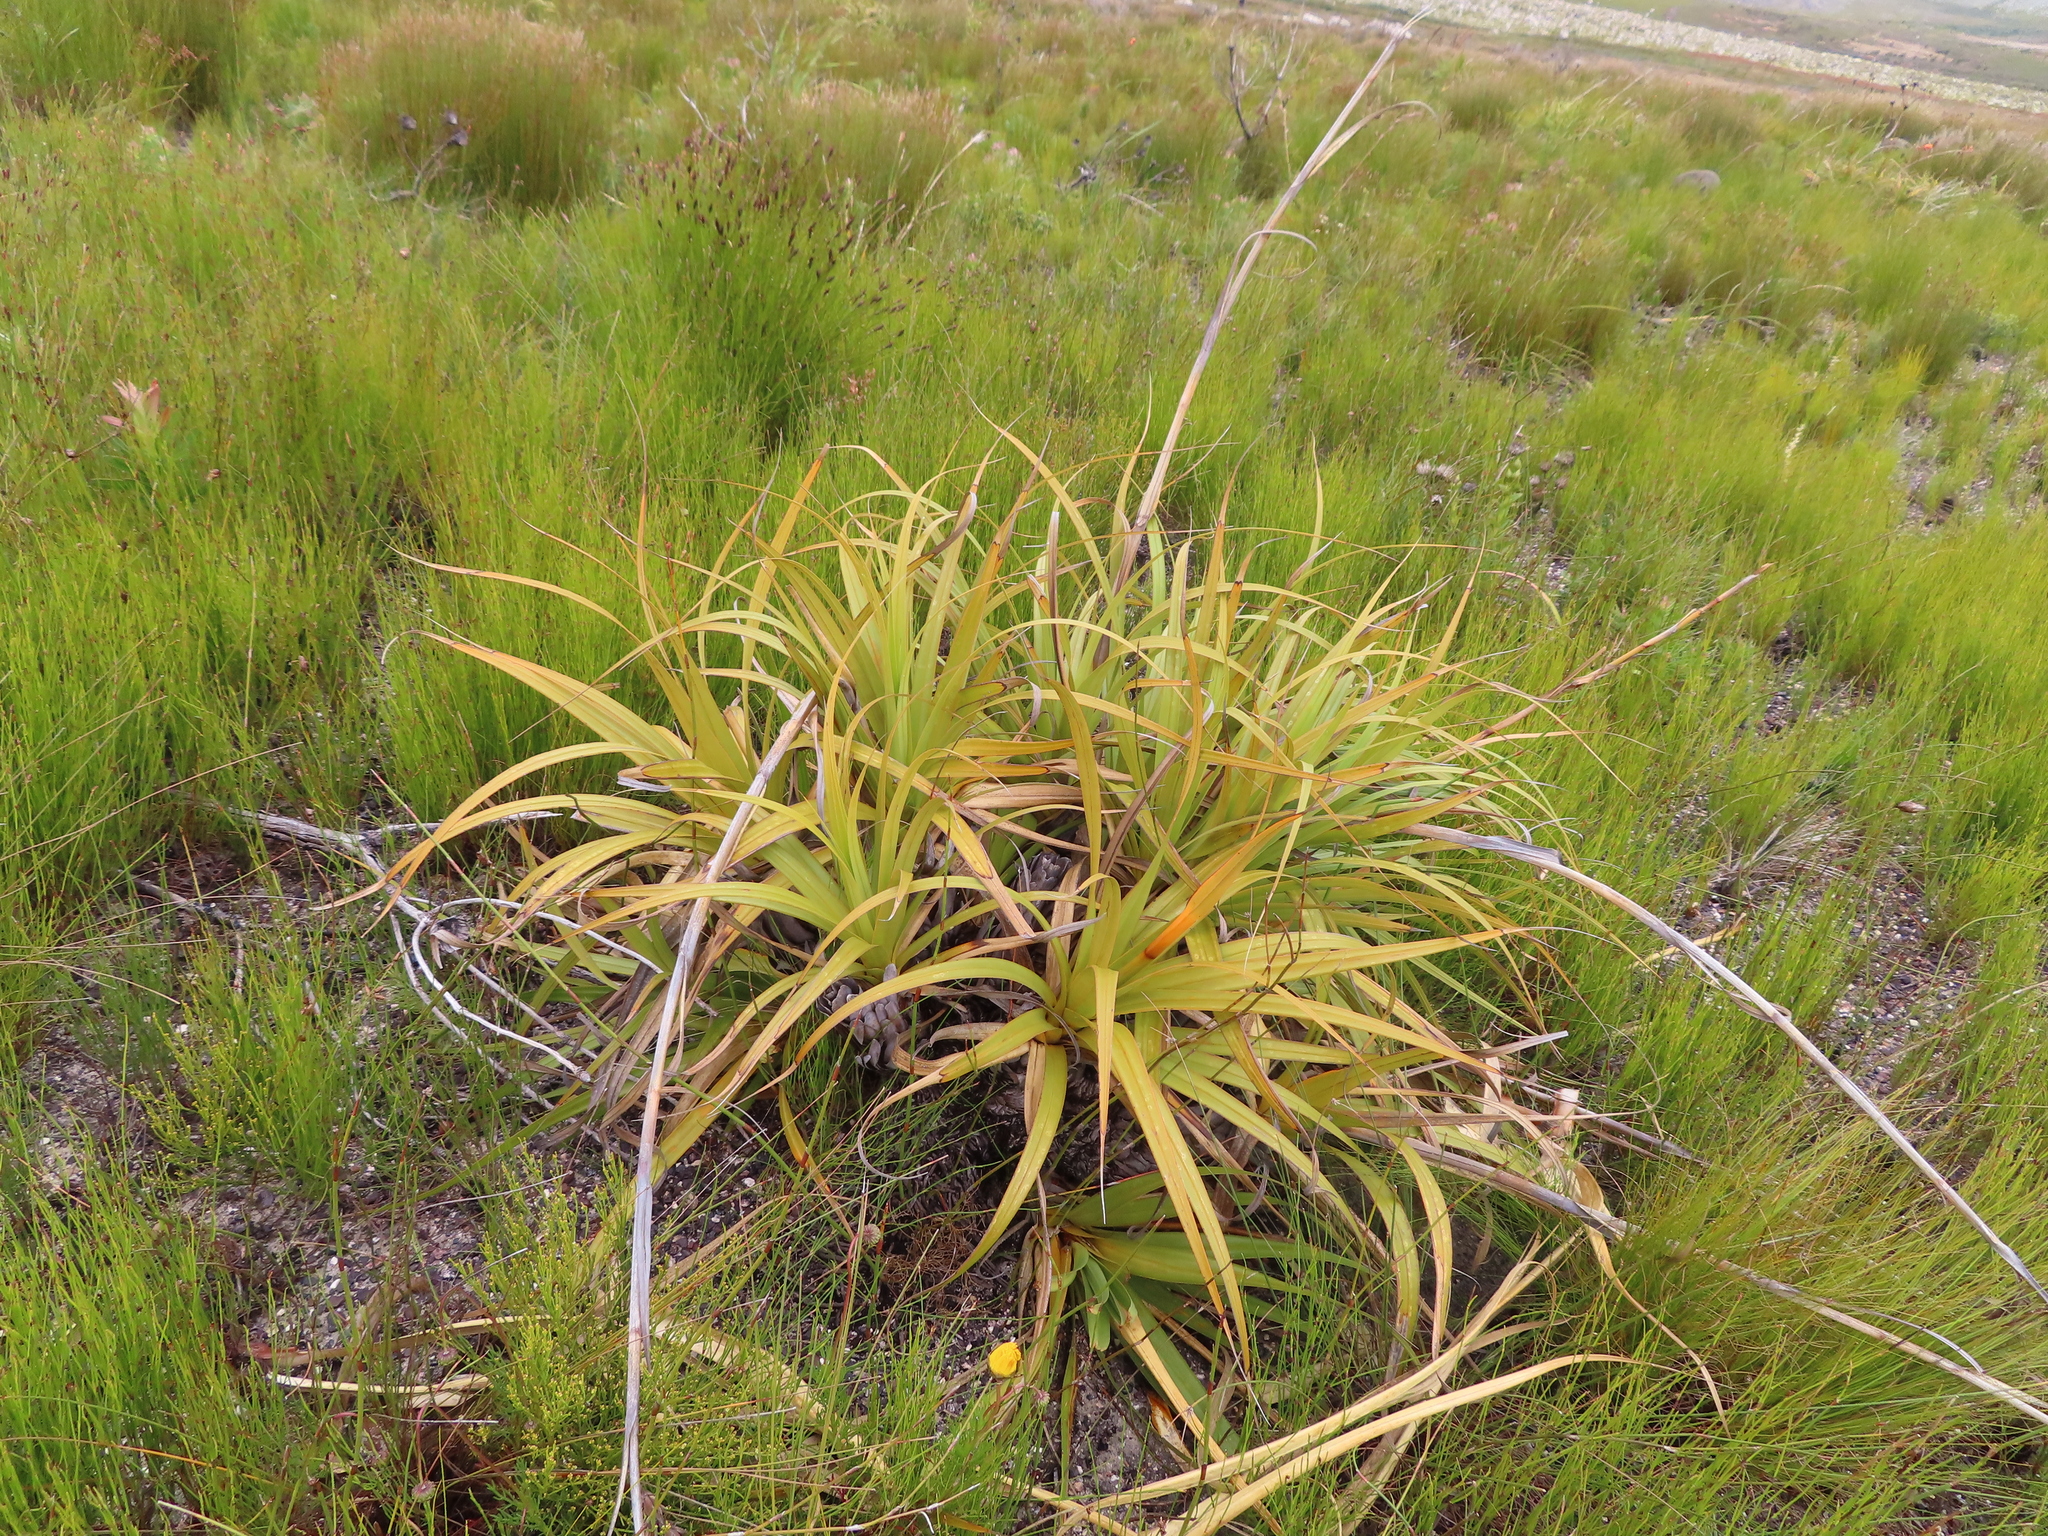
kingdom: Plantae
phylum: Tracheophyta
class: Liliopsida
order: Poales
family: Cyperaceae
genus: Tetraria
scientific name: Tetraria thermalis
